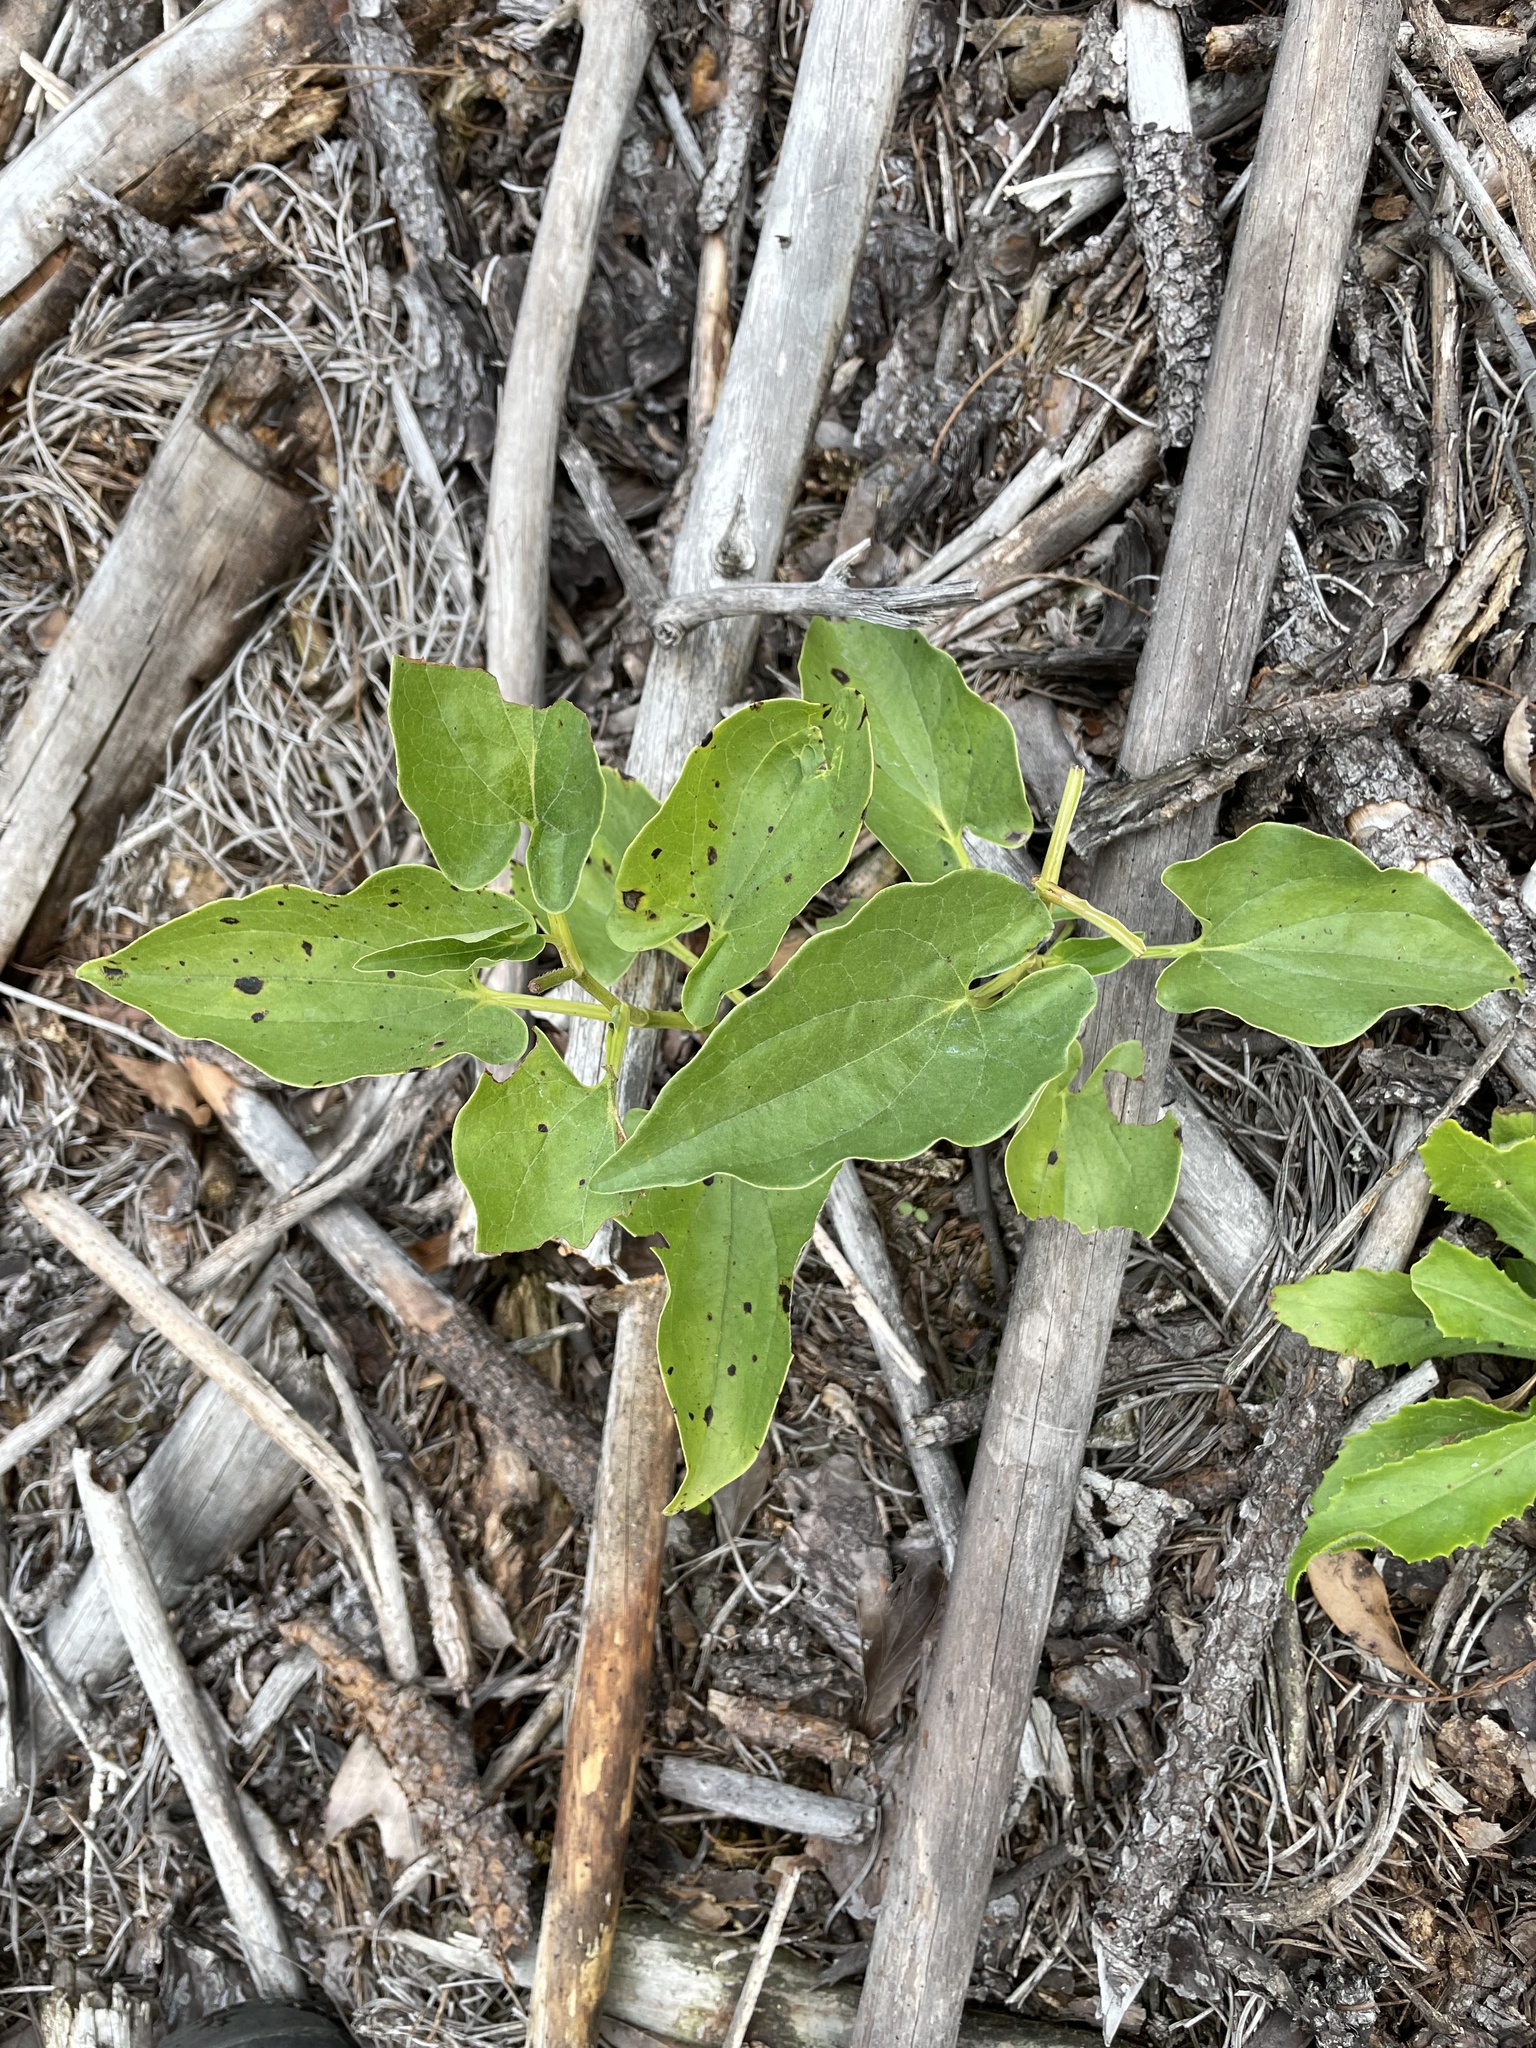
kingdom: Plantae
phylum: Tracheophyta
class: Magnoliopsida
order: Piperales
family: Saururaceae
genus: Saururus
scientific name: Saururus cernuus
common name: Lizard's-tail
